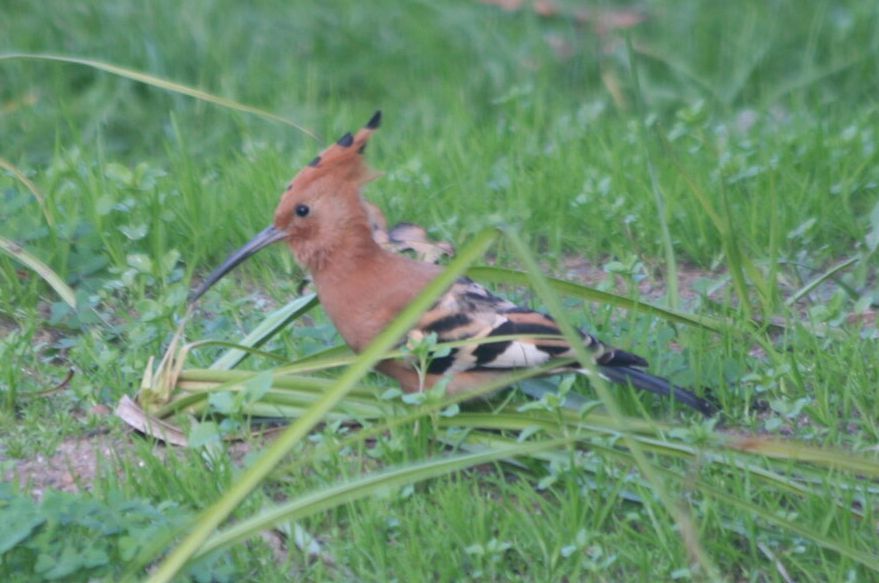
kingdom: Animalia
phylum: Chordata
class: Aves
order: Bucerotiformes
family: Upupidae
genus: Upupa
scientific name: Upupa africana
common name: African hoopoe
